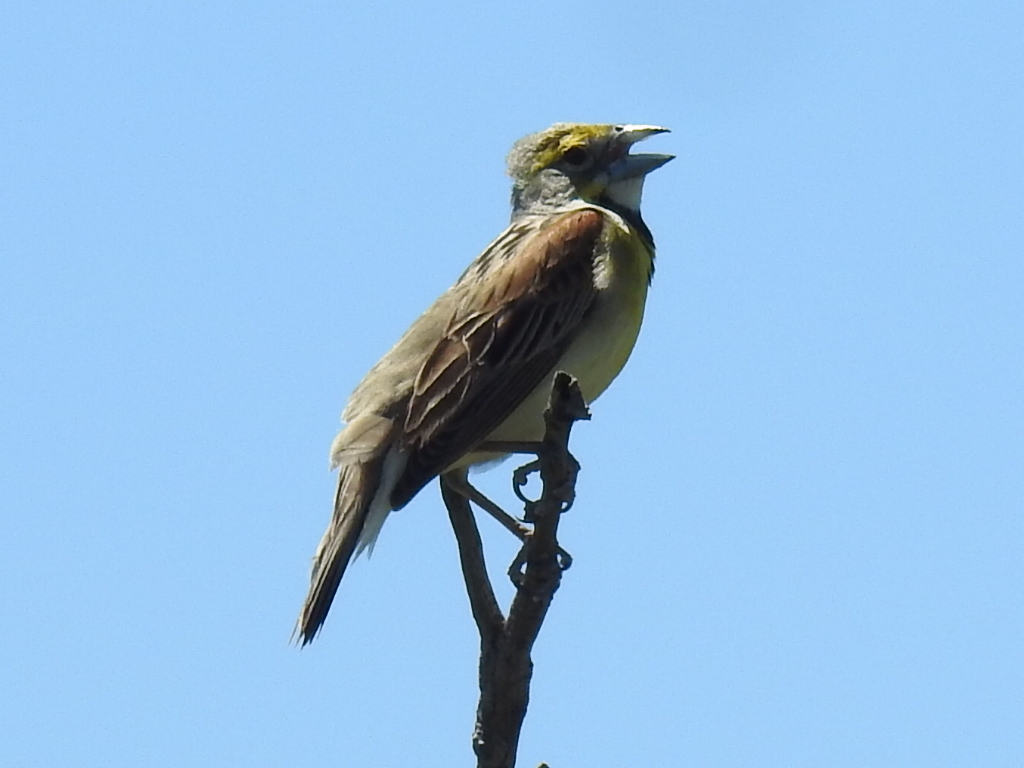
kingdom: Animalia
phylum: Chordata
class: Aves
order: Passeriformes
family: Cardinalidae
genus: Spiza
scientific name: Spiza americana
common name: Dickcissel
